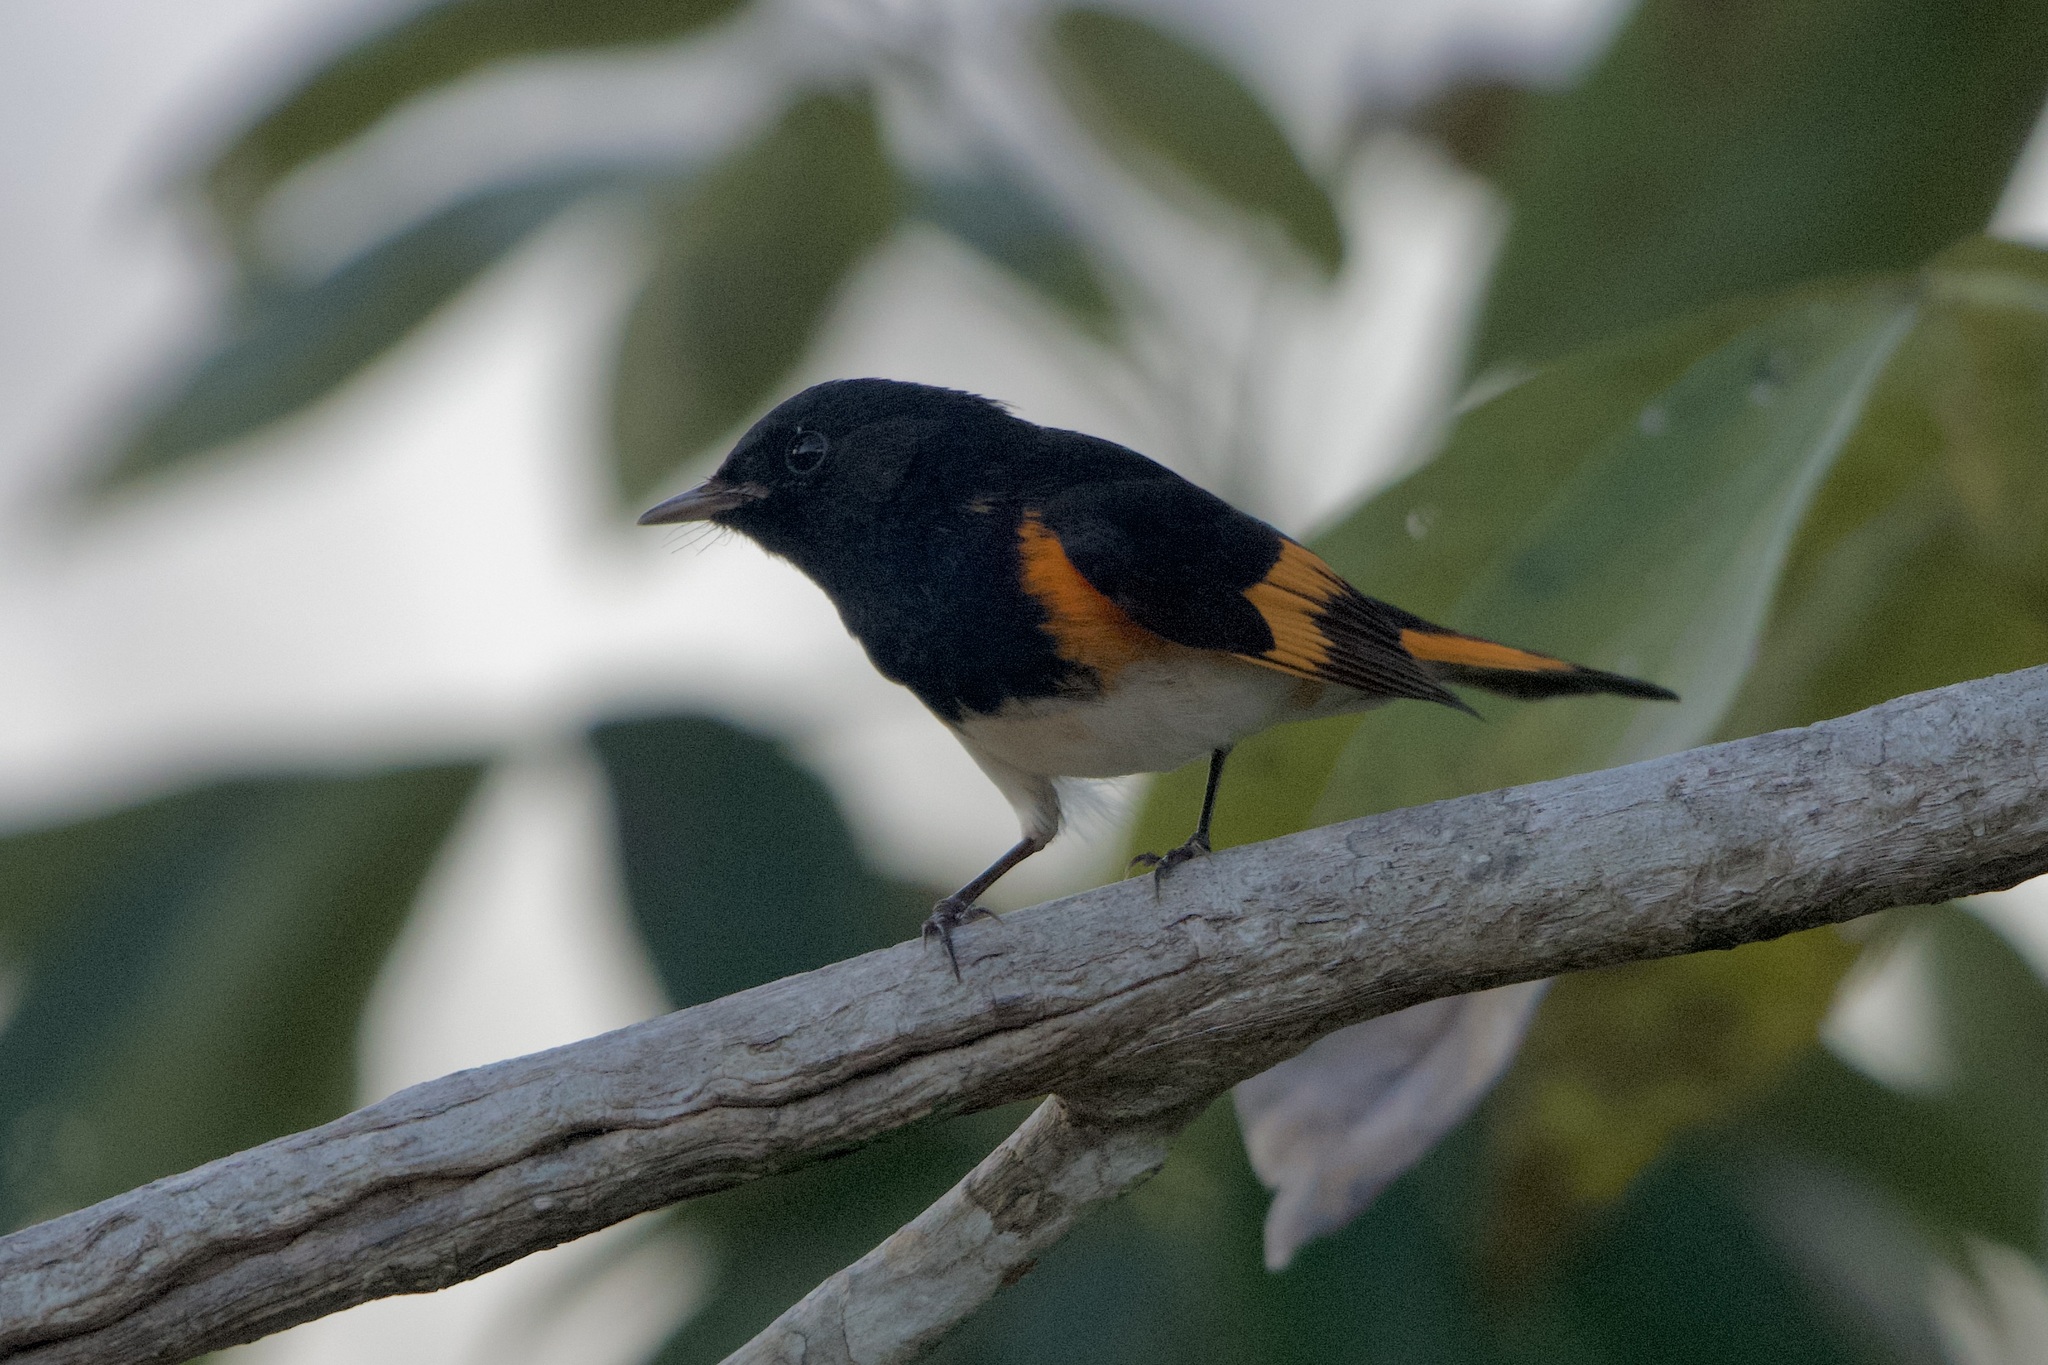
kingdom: Animalia
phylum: Chordata
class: Aves
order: Passeriformes
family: Parulidae
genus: Setophaga
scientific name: Setophaga ruticilla
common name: American redstart
